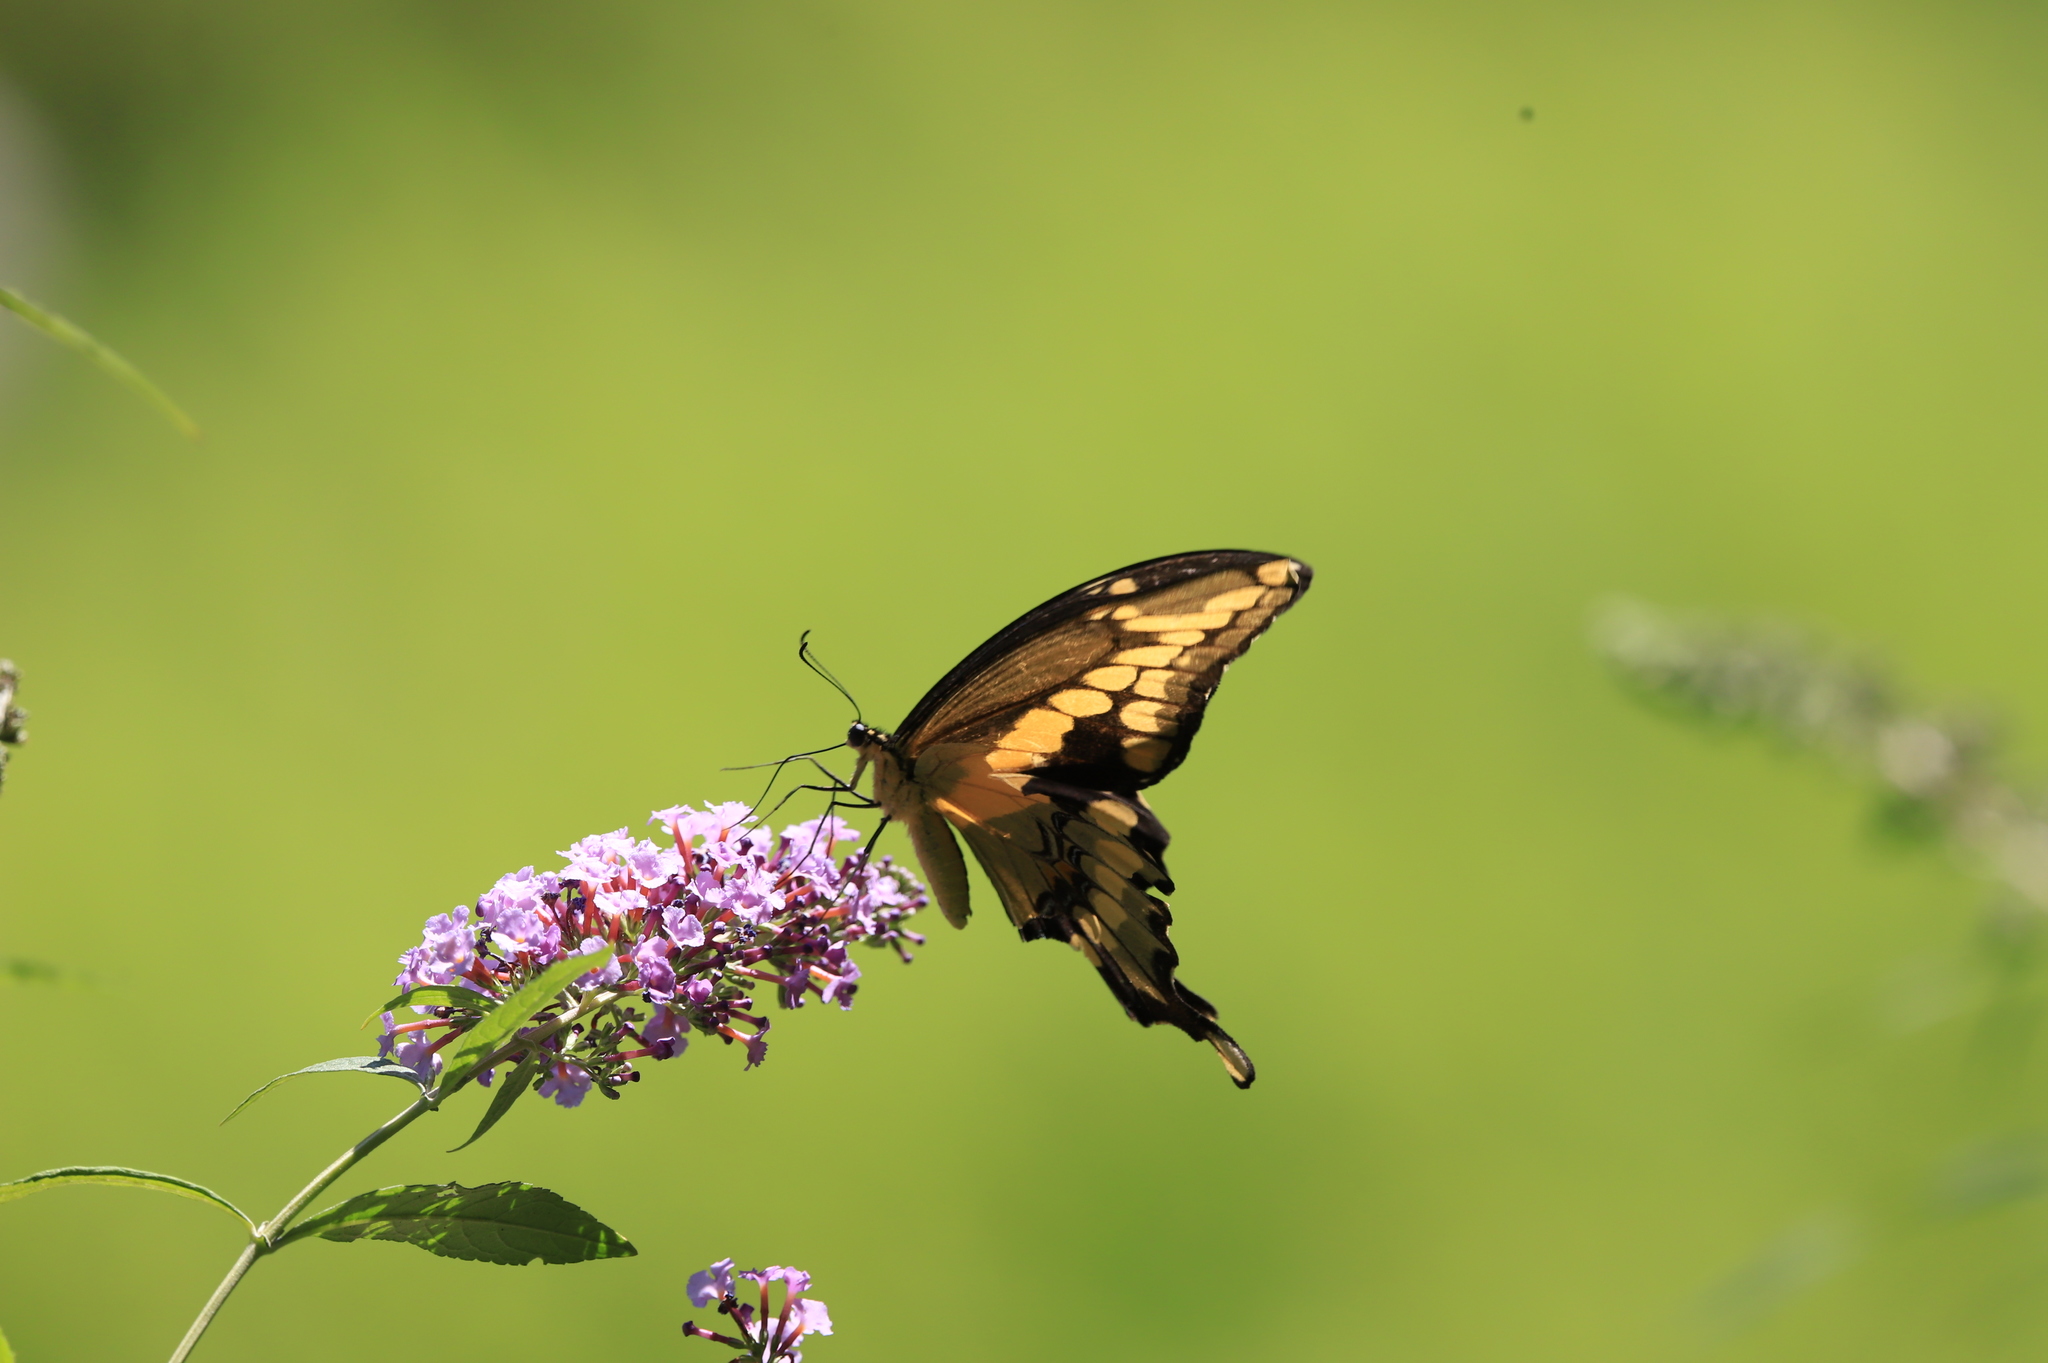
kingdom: Animalia
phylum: Arthropoda
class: Insecta
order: Lepidoptera
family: Papilionidae
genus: Papilio
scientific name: Papilio cresphontes
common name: Giant swallowtail
